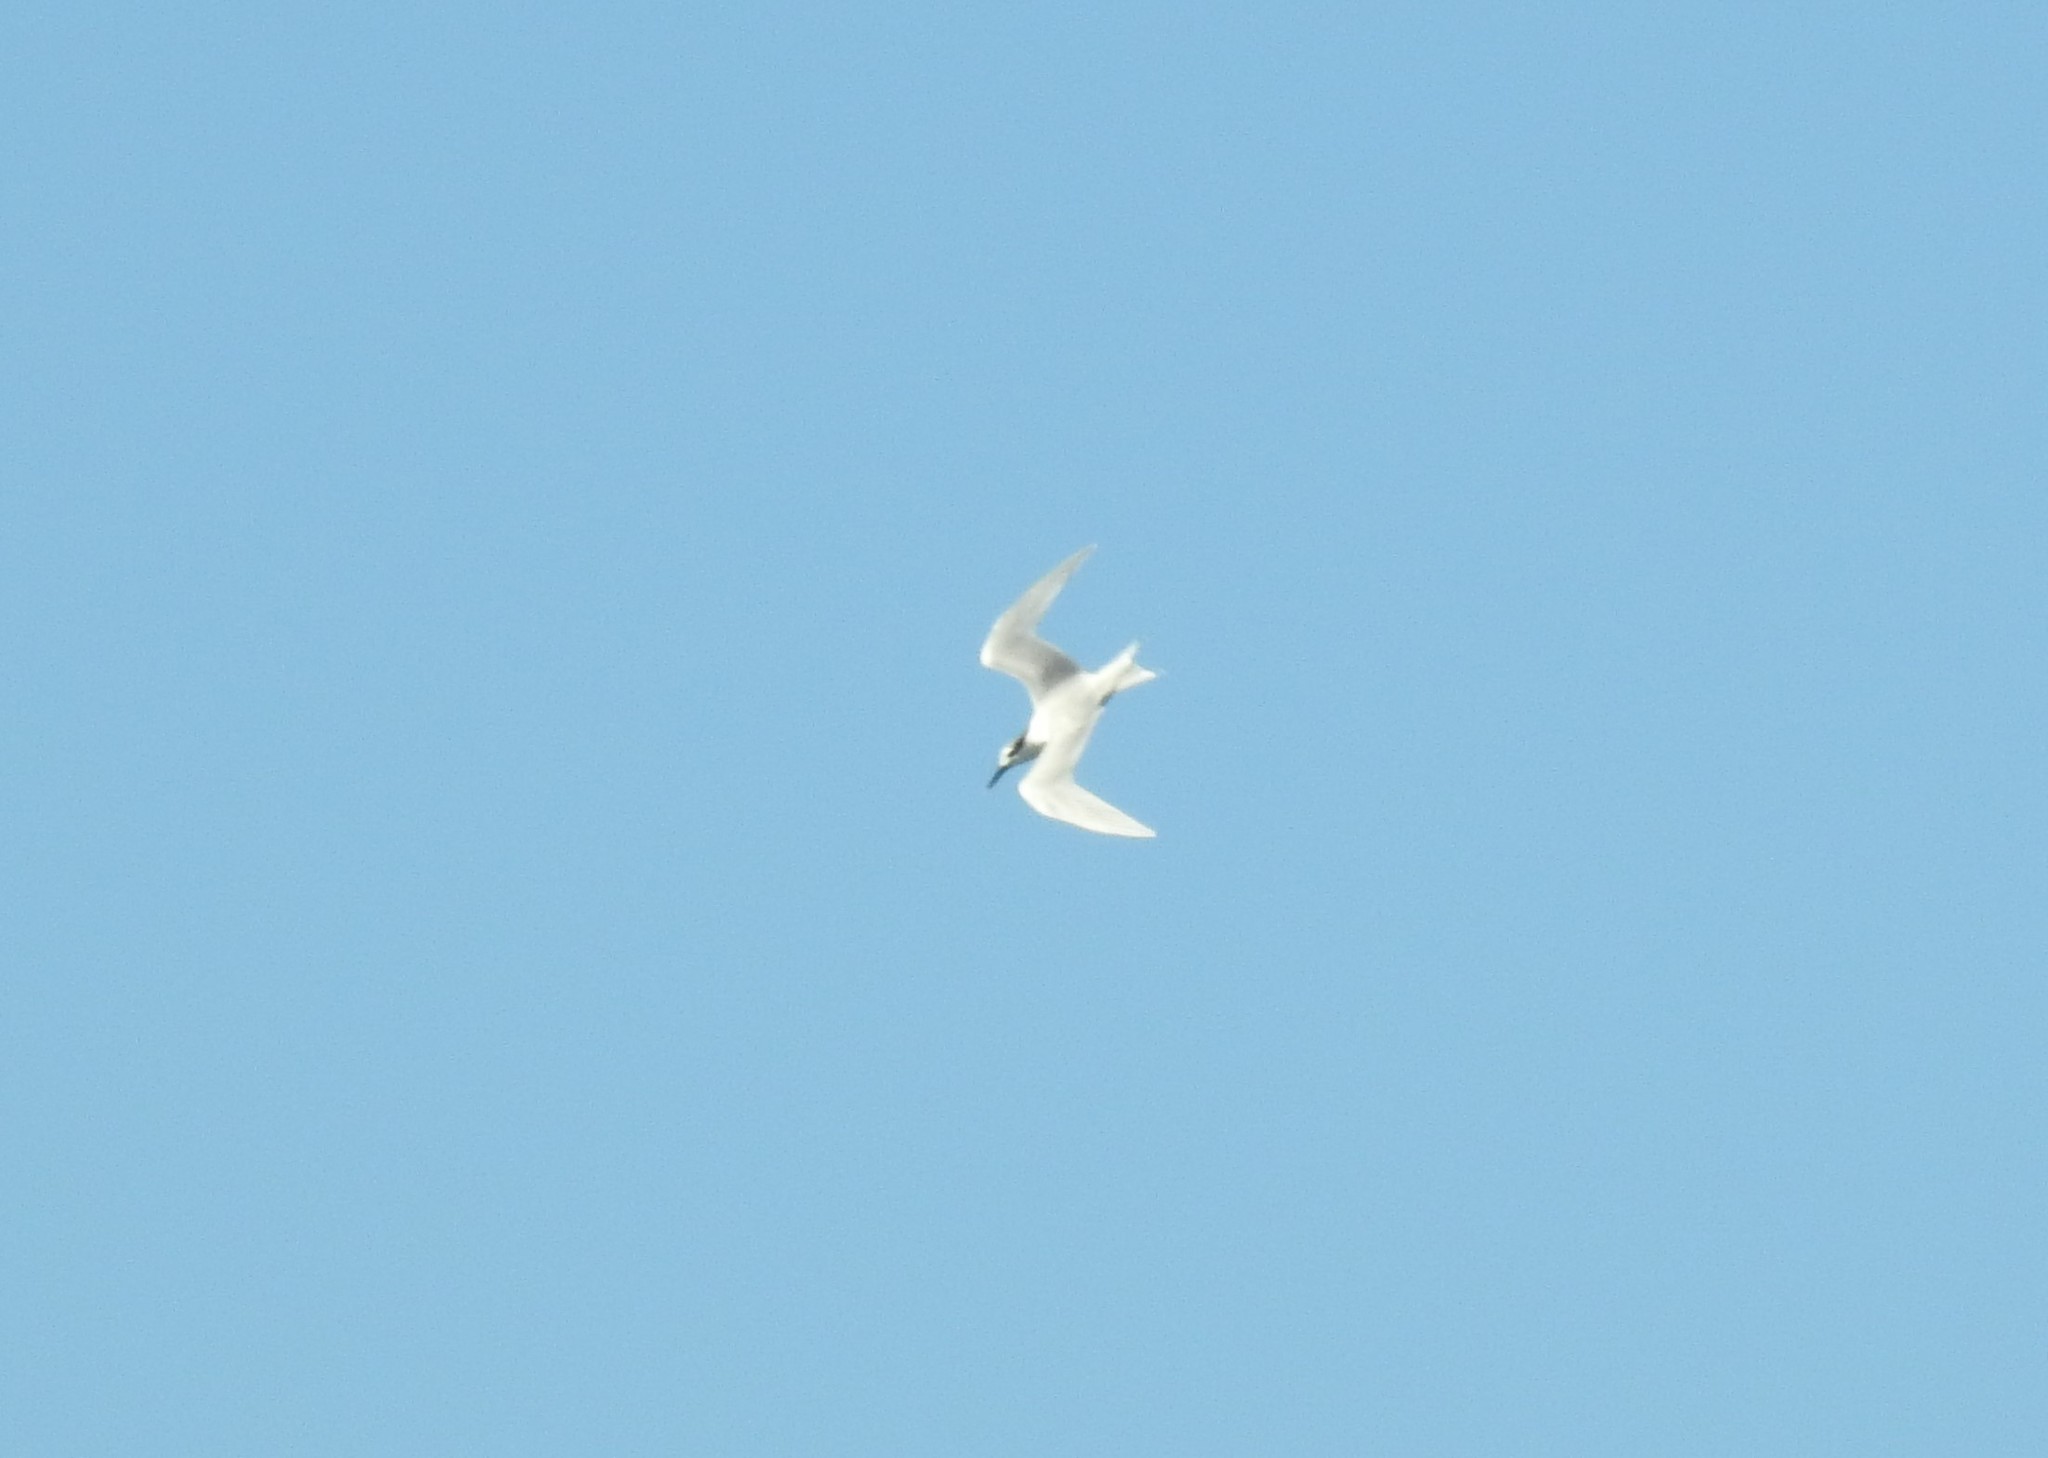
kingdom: Animalia
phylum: Chordata
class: Aves
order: Charadriiformes
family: Laridae
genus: Thalasseus
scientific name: Thalasseus sandvicensis
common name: Sandwich tern
